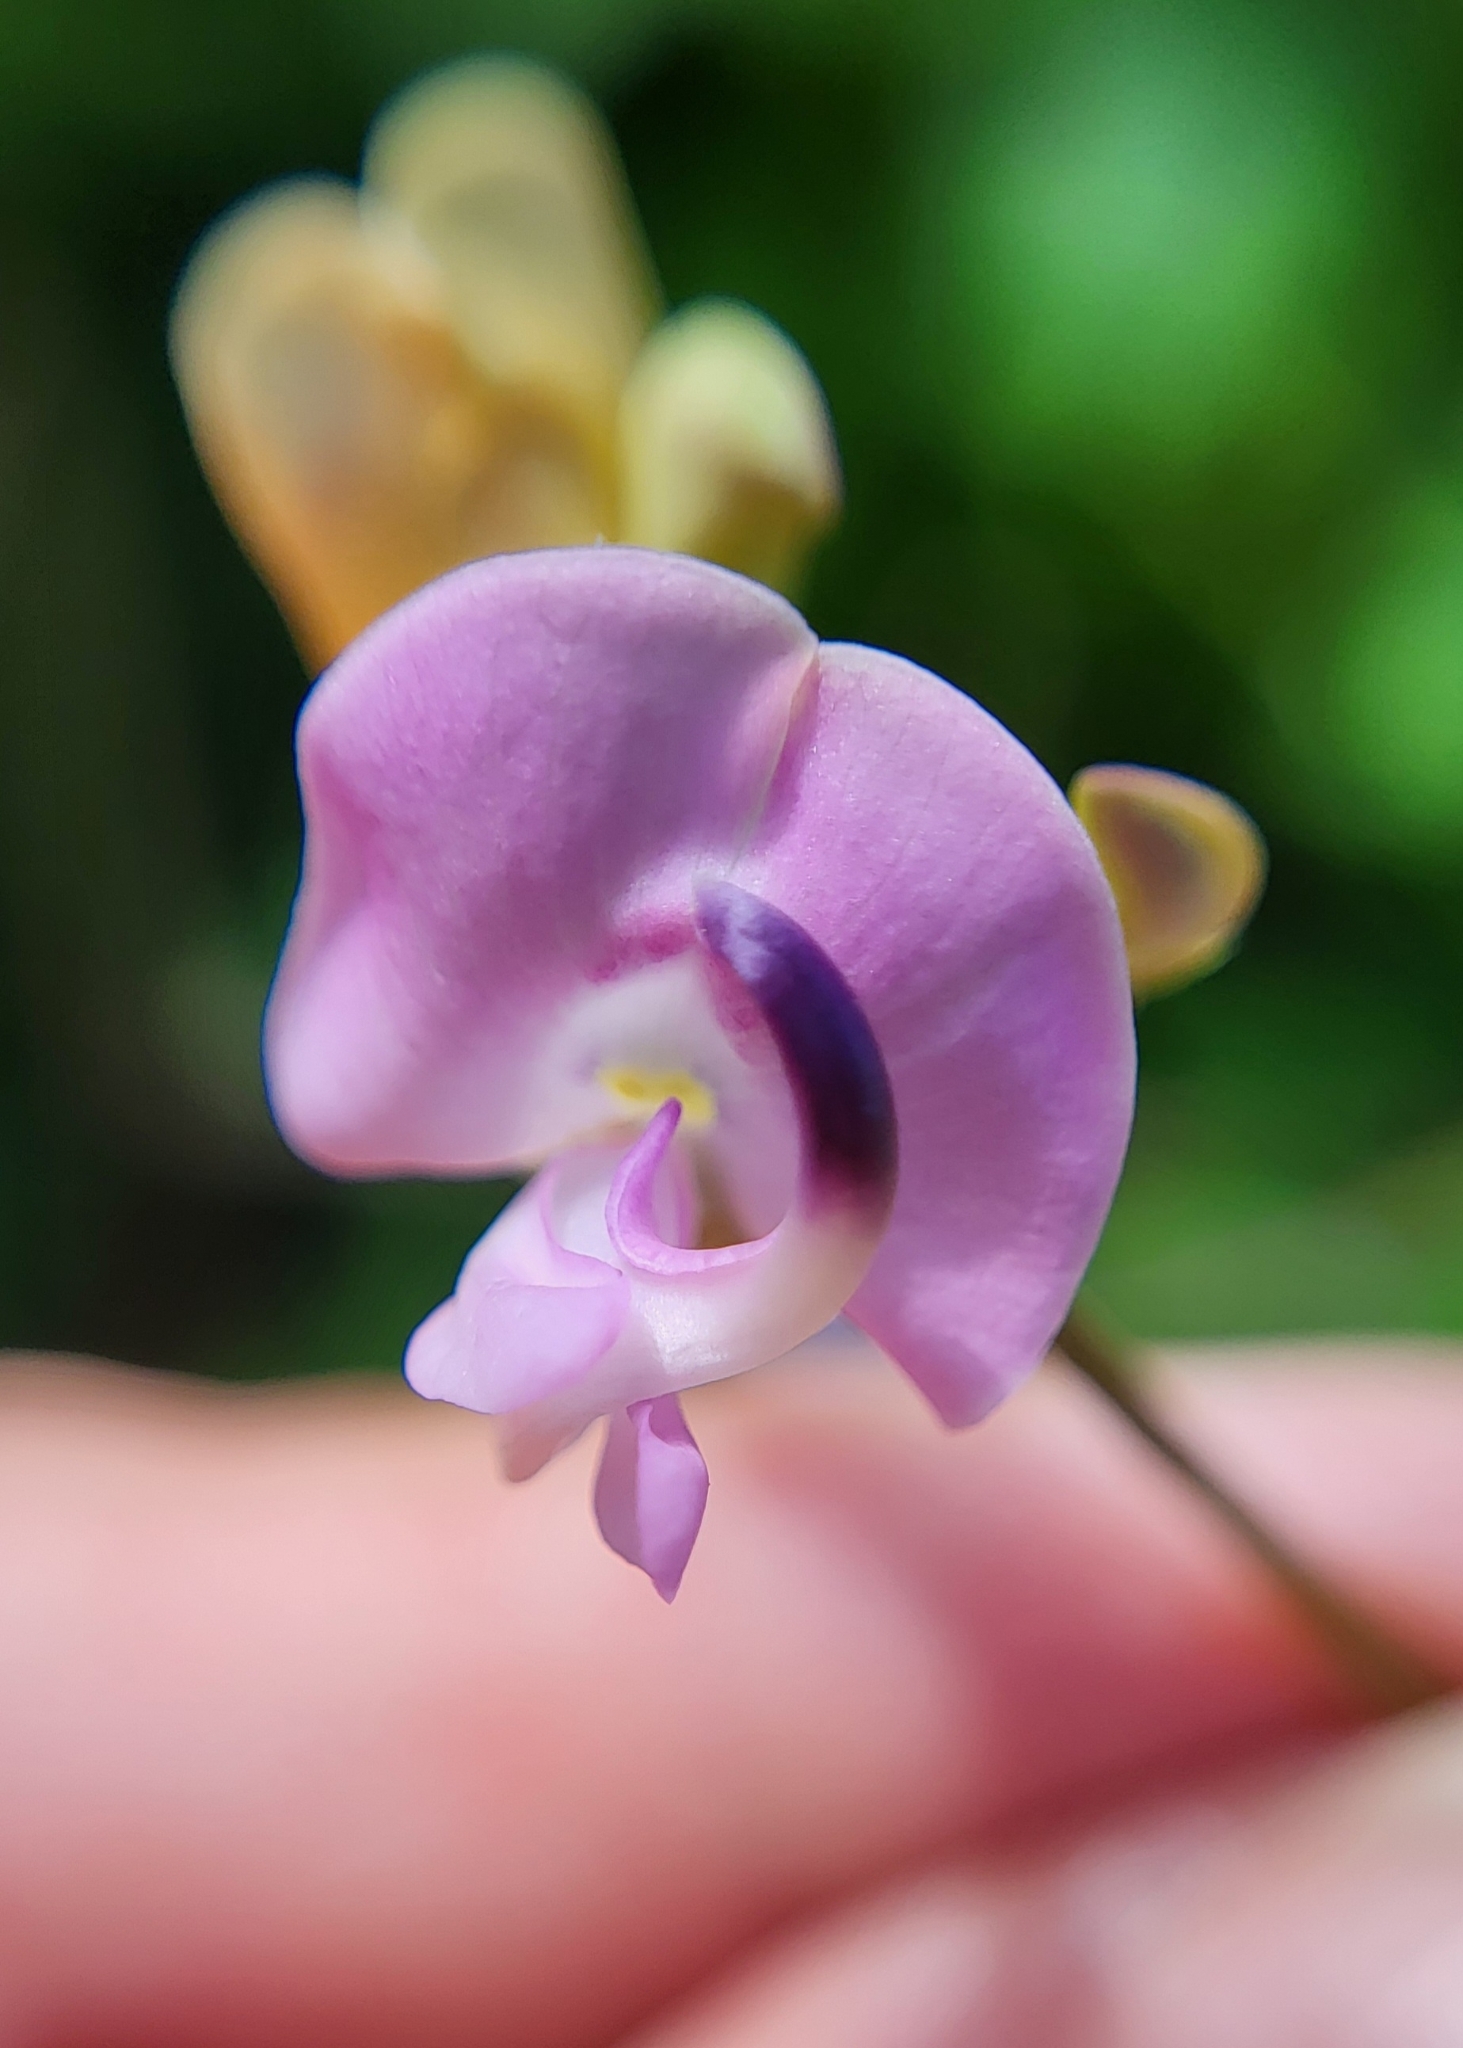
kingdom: Plantae
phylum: Tracheophyta
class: Magnoliopsida
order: Fabales
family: Fabaceae
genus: Strophostyles
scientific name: Strophostyles helvola
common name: Trailing wild bean
